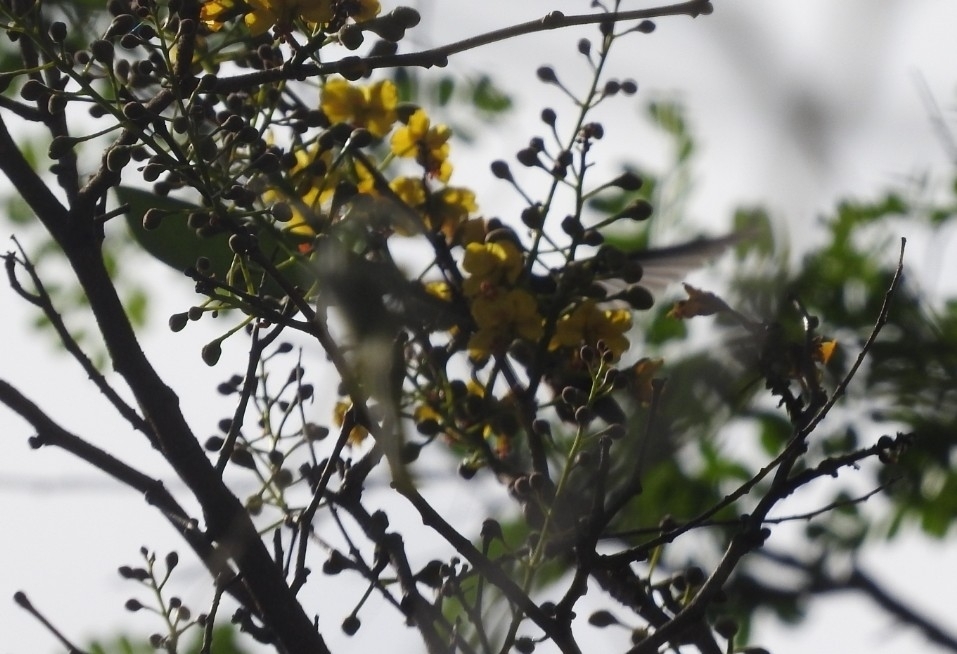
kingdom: Animalia
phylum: Chordata
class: Aves
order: Apodiformes
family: Trochilidae
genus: Amazilia
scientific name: Amazilia yucatanensis
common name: Buff-bellied hummingbird
